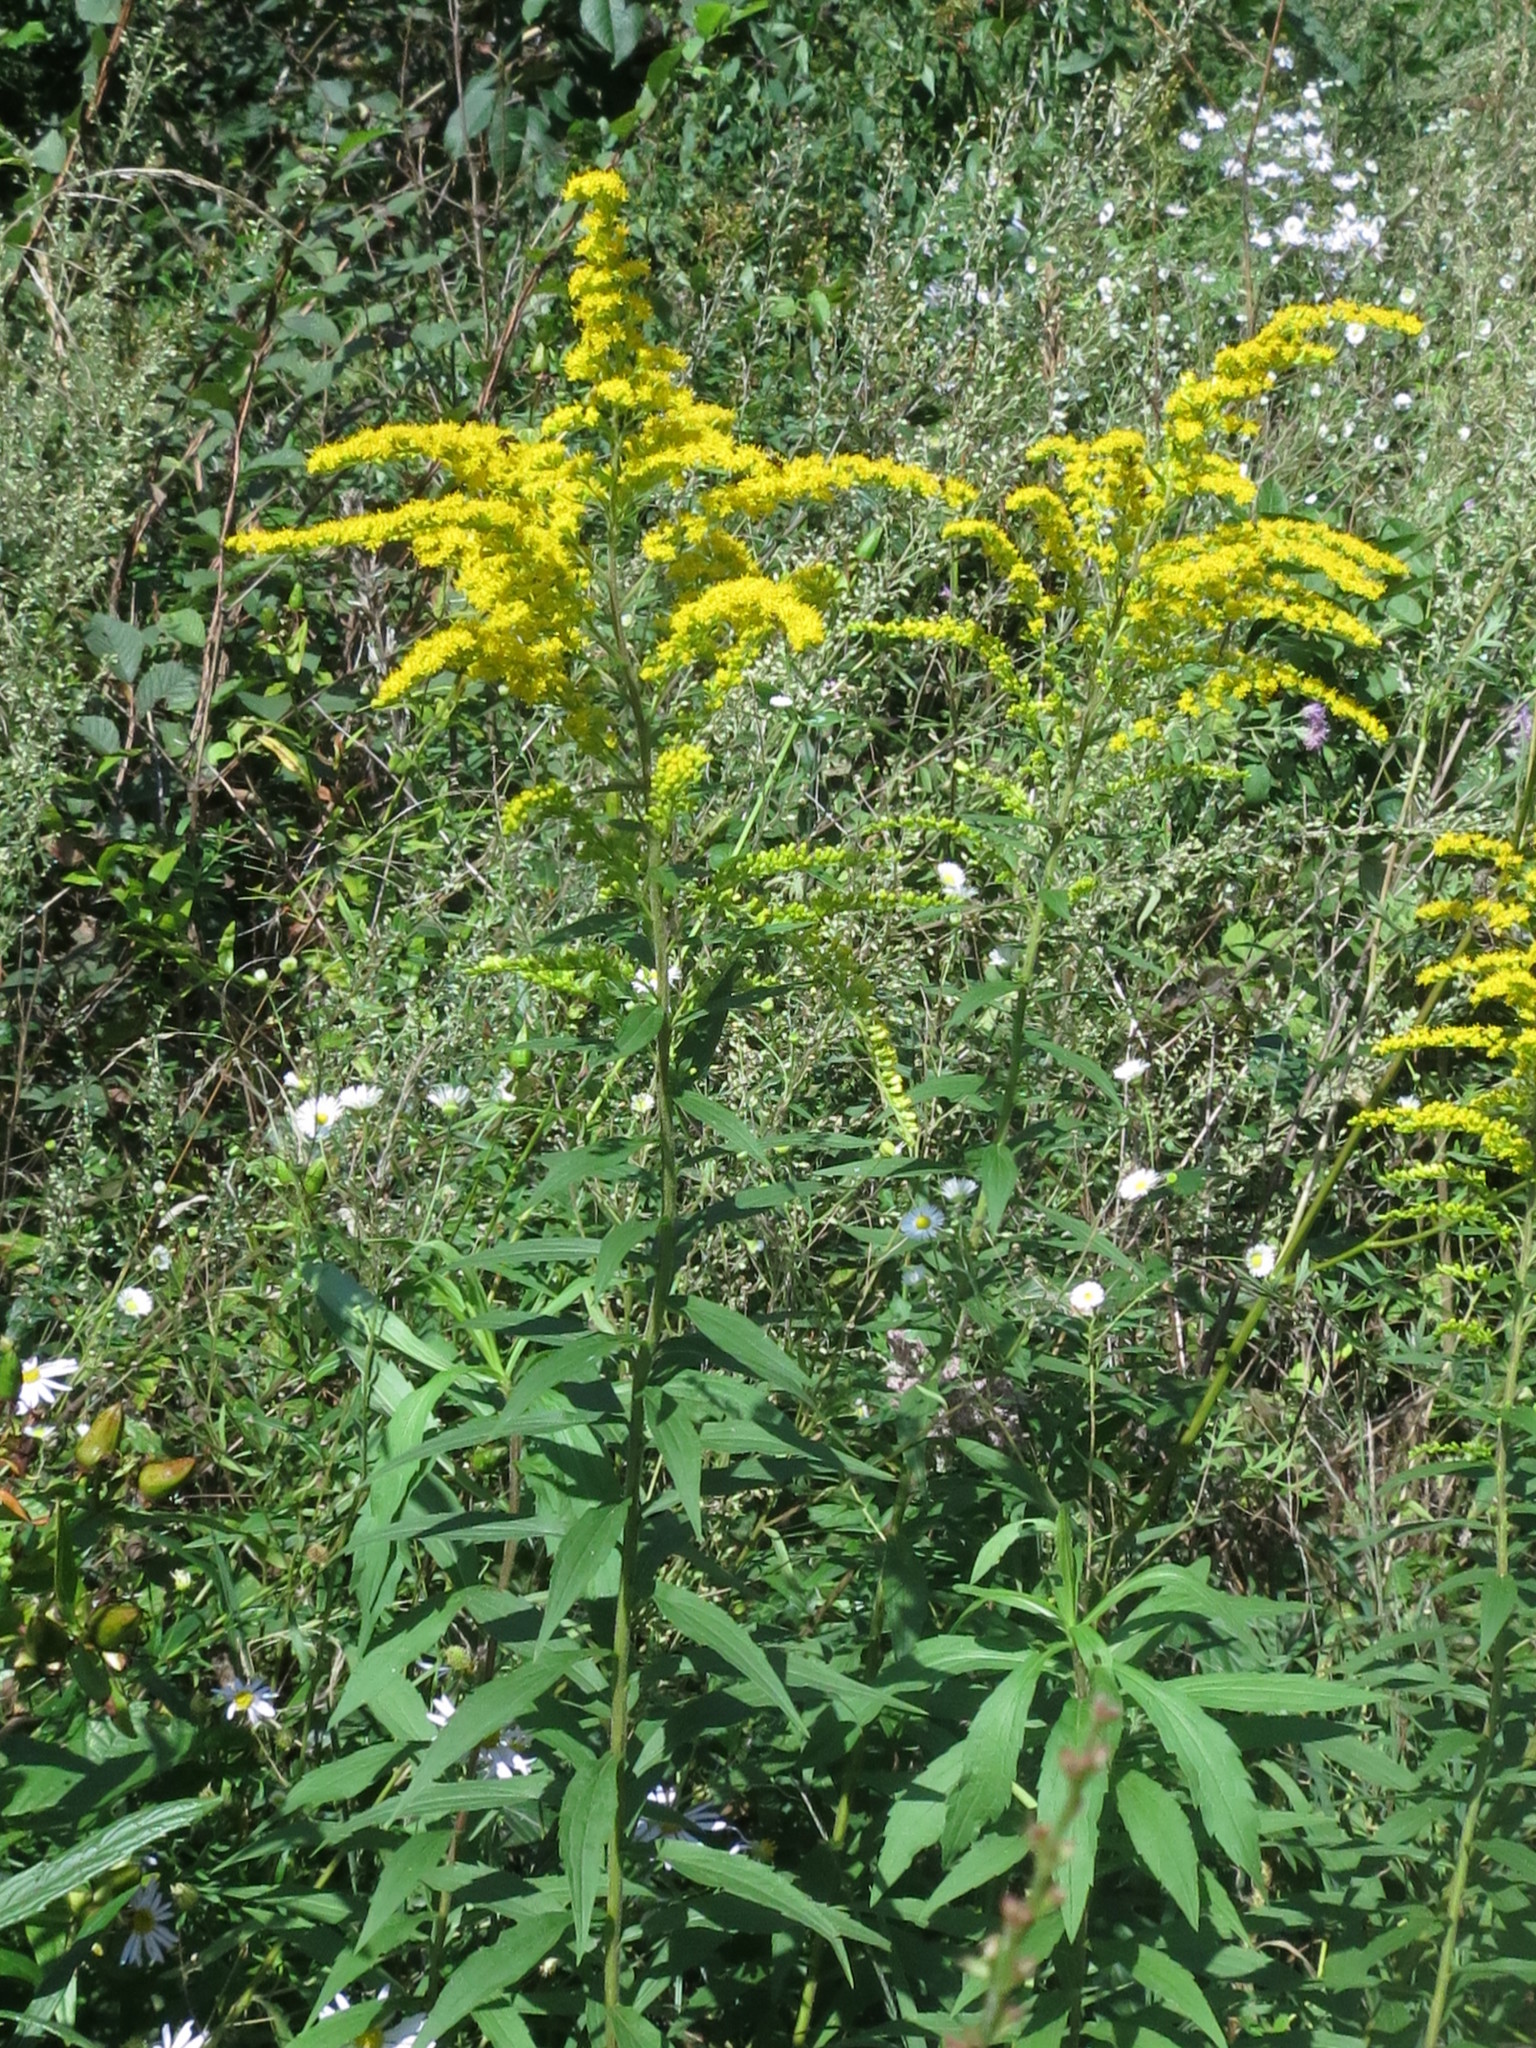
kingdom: Plantae
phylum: Tracheophyta
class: Magnoliopsida
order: Asterales
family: Asteraceae
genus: Solidago
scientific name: Solidago canadensis
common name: Canada goldenrod
